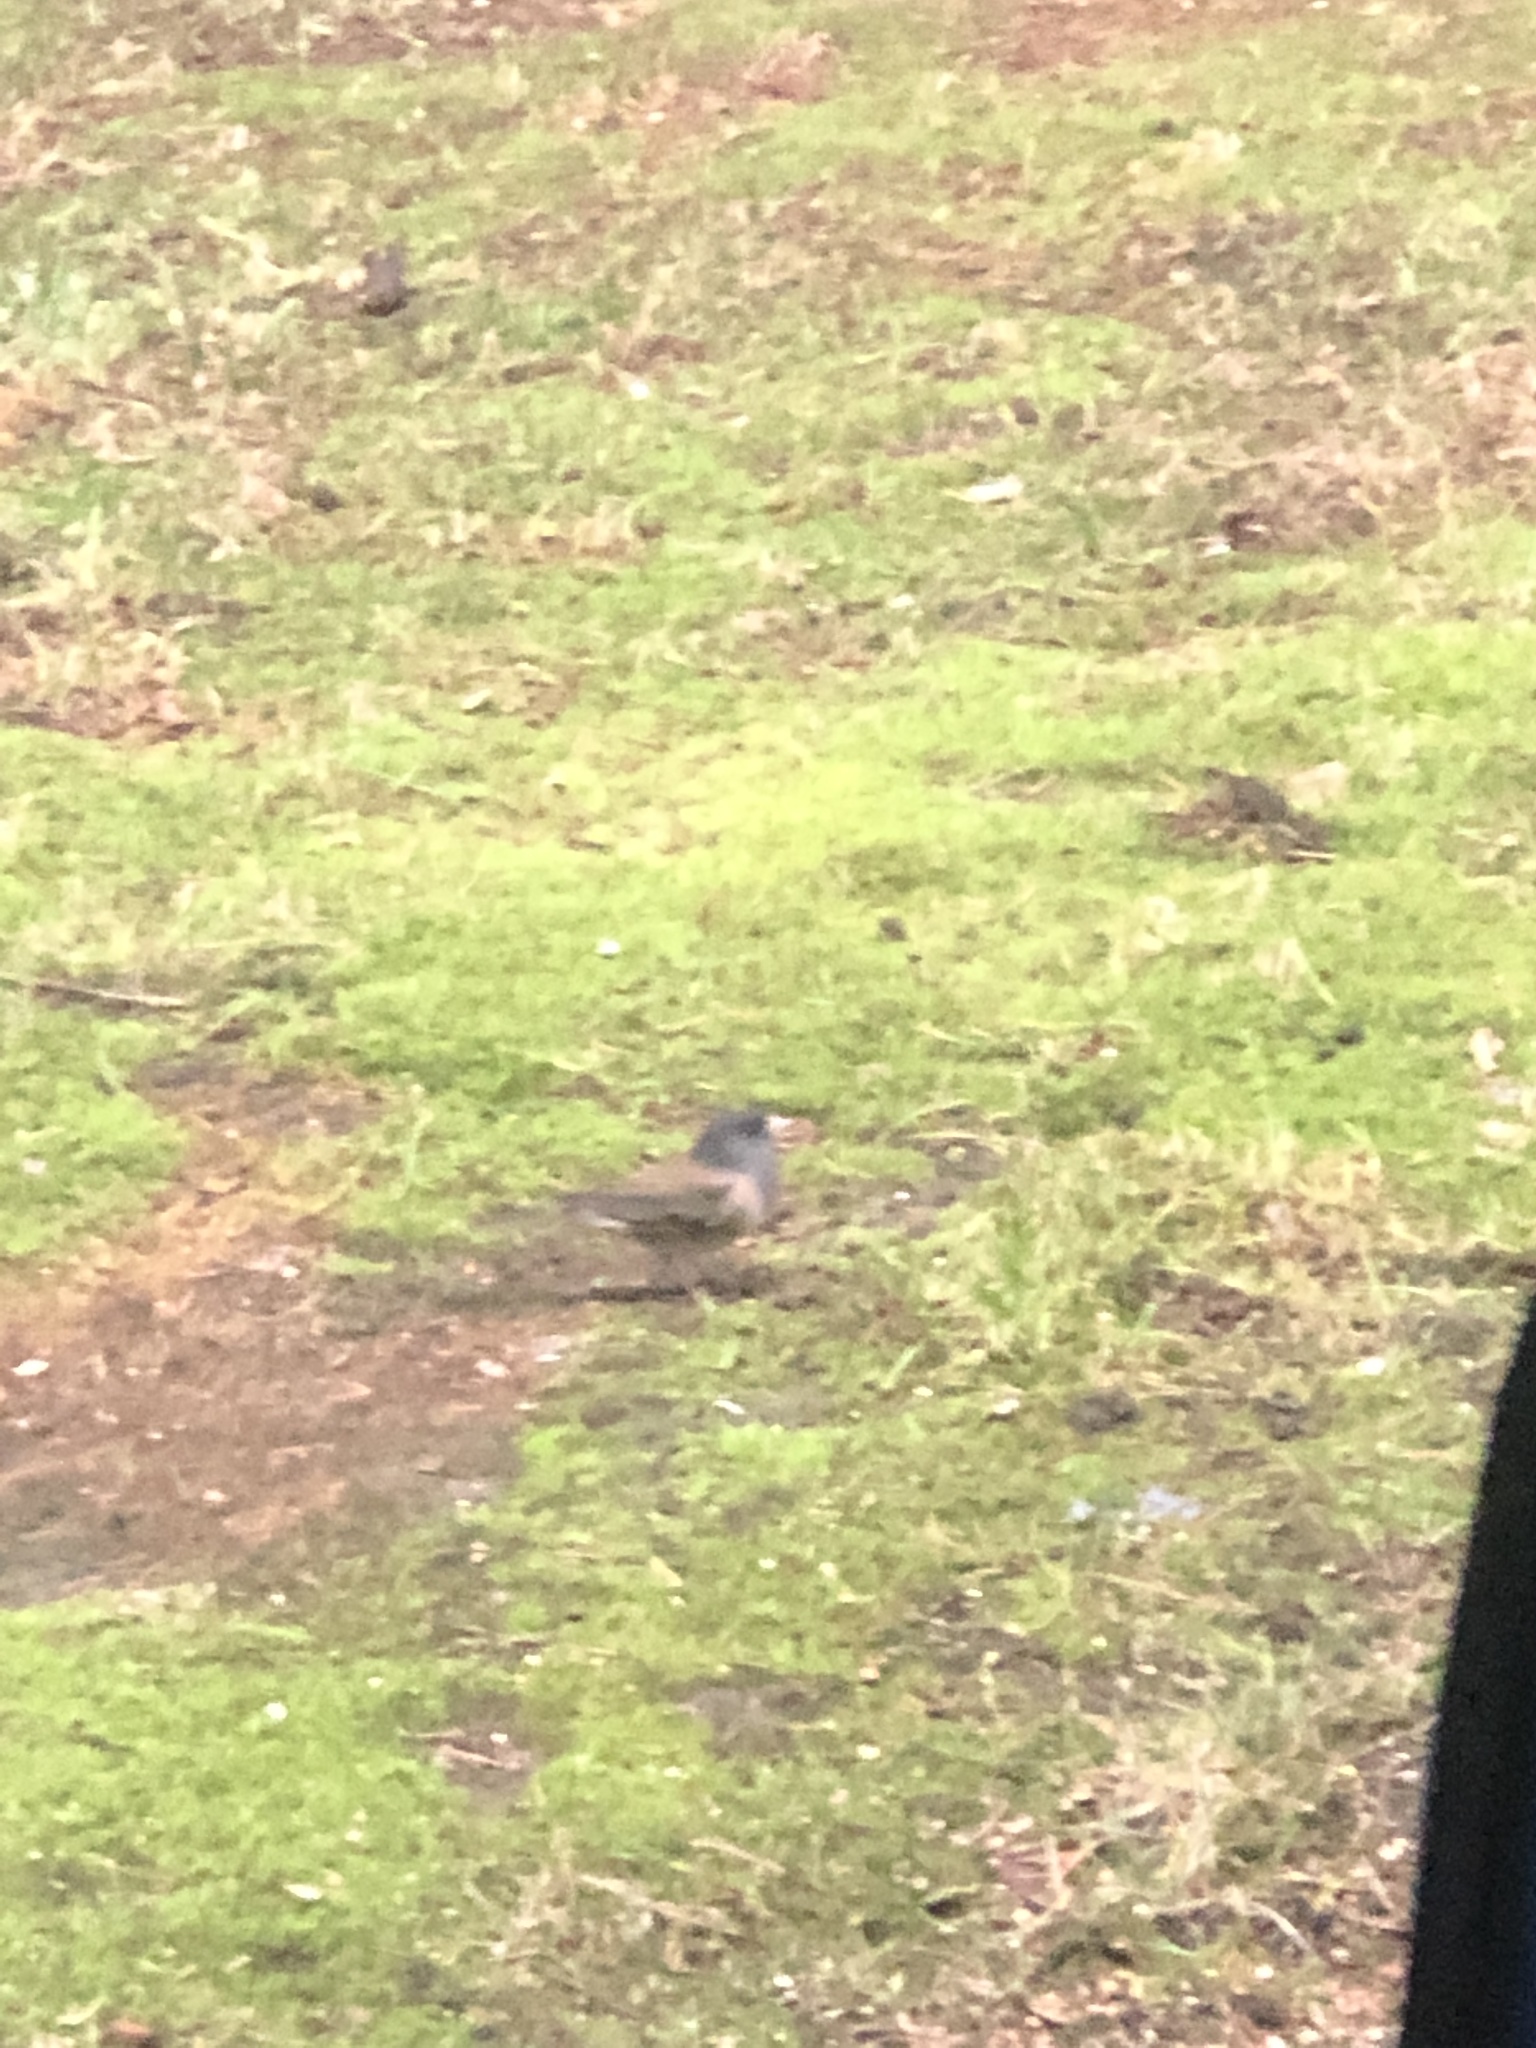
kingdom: Animalia
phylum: Chordata
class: Aves
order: Passeriformes
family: Passerellidae
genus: Junco
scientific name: Junco hyemalis
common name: Dark-eyed junco
